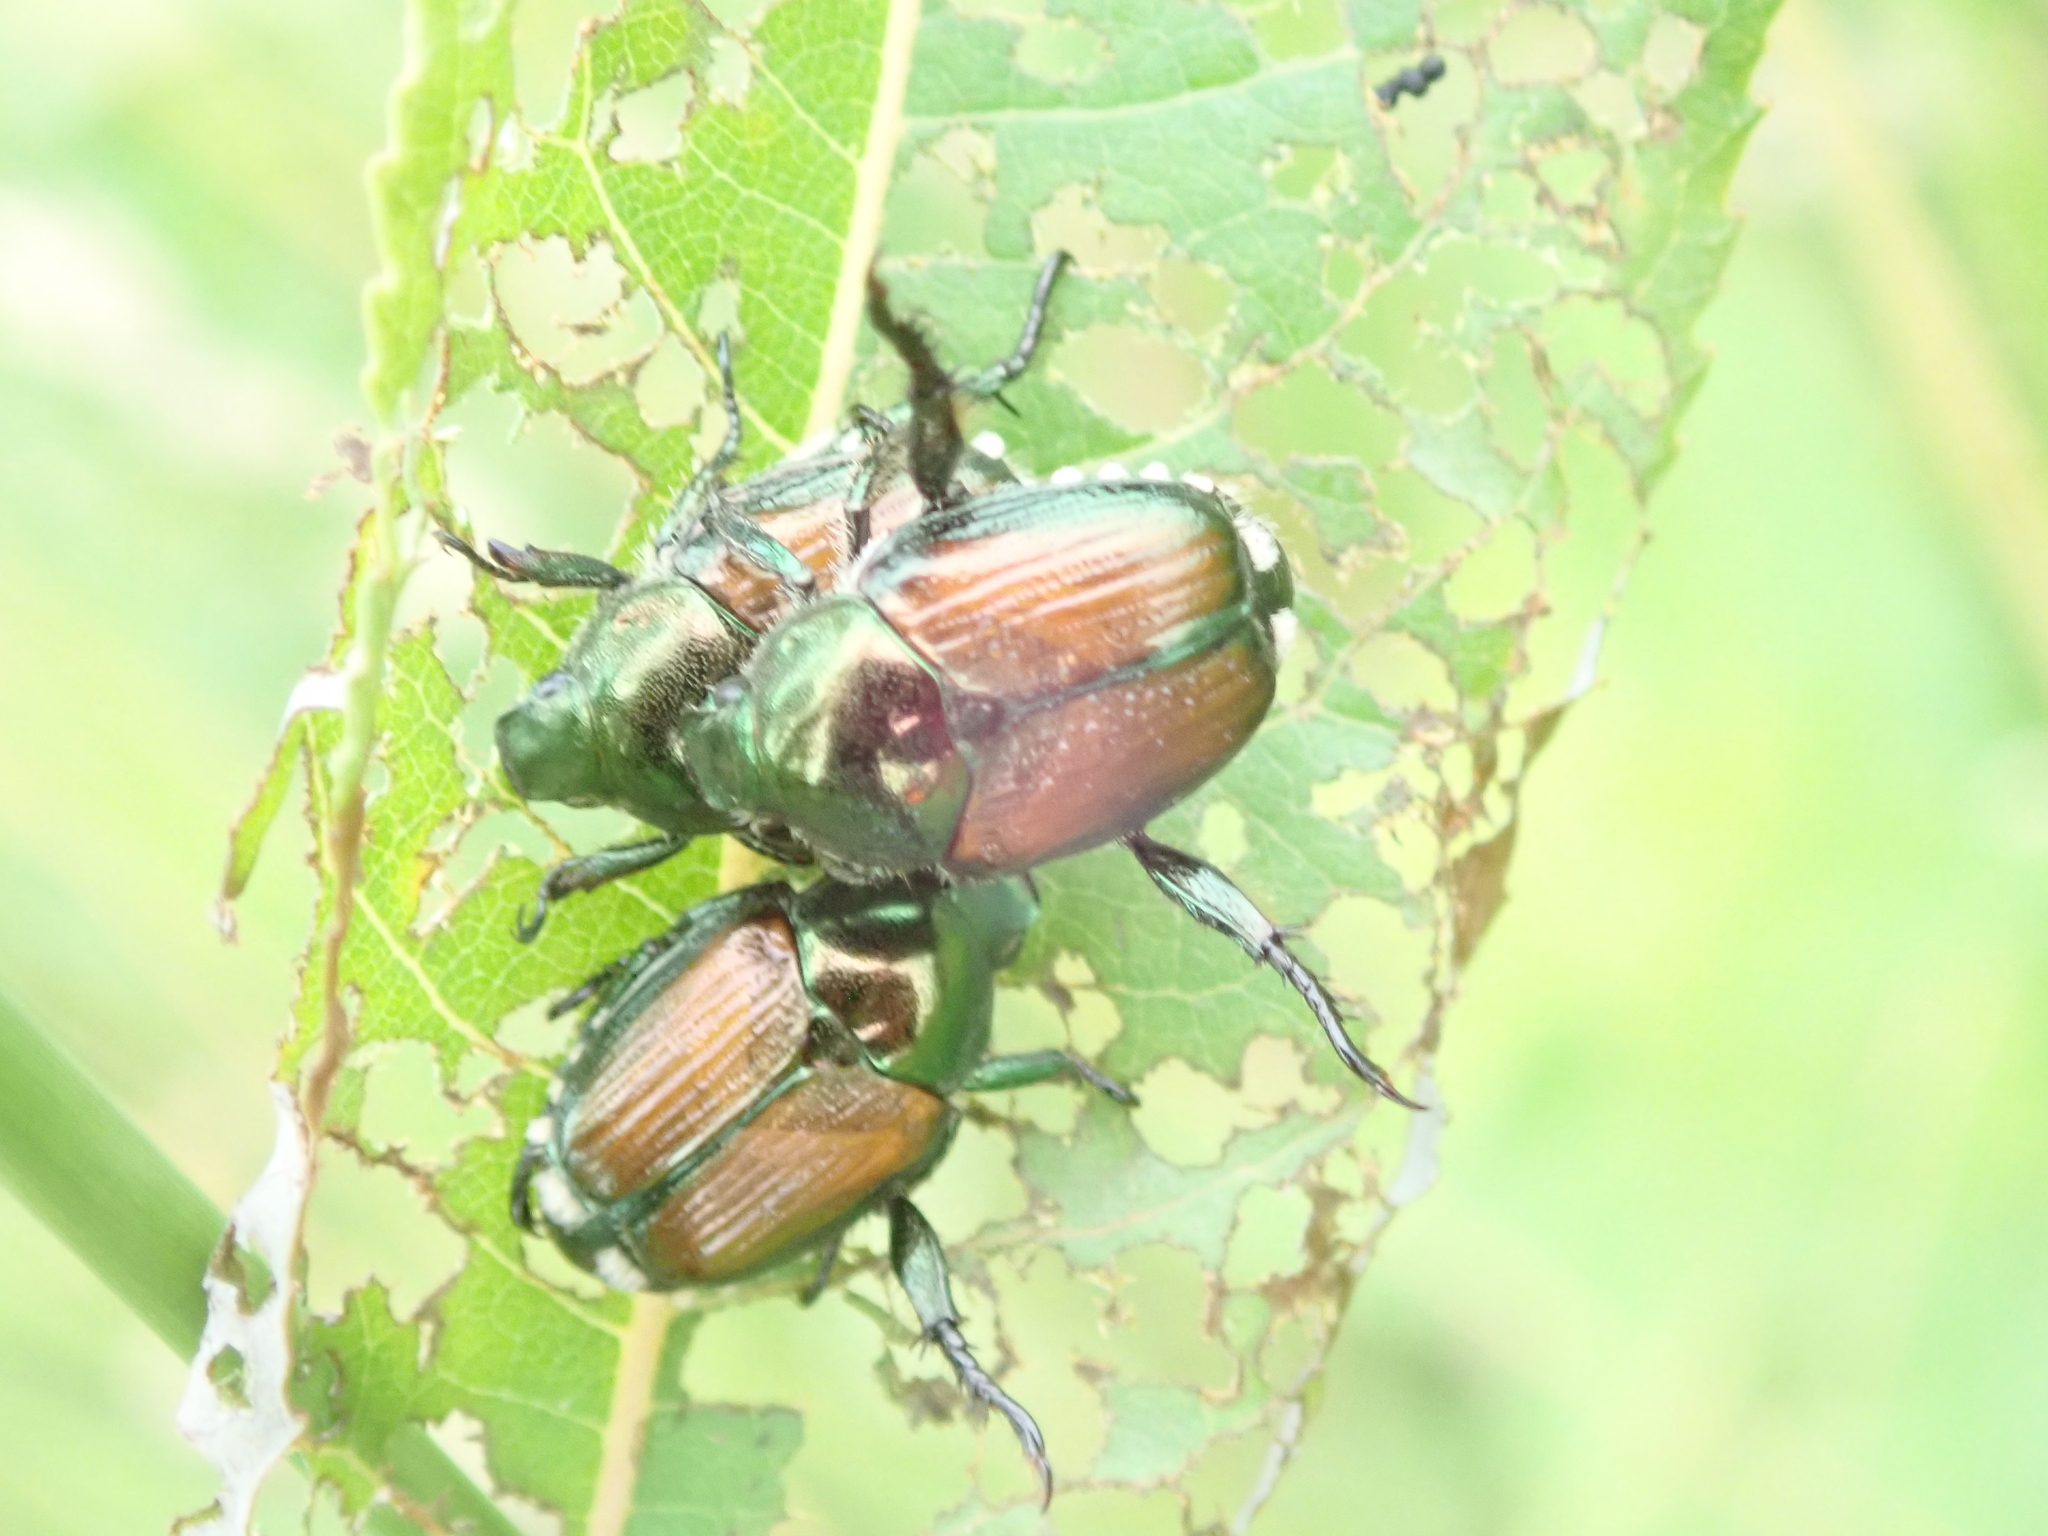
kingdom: Animalia
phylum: Arthropoda
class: Insecta
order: Coleoptera
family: Scarabaeidae
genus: Popillia
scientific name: Popillia japonica
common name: Japanese beetle
